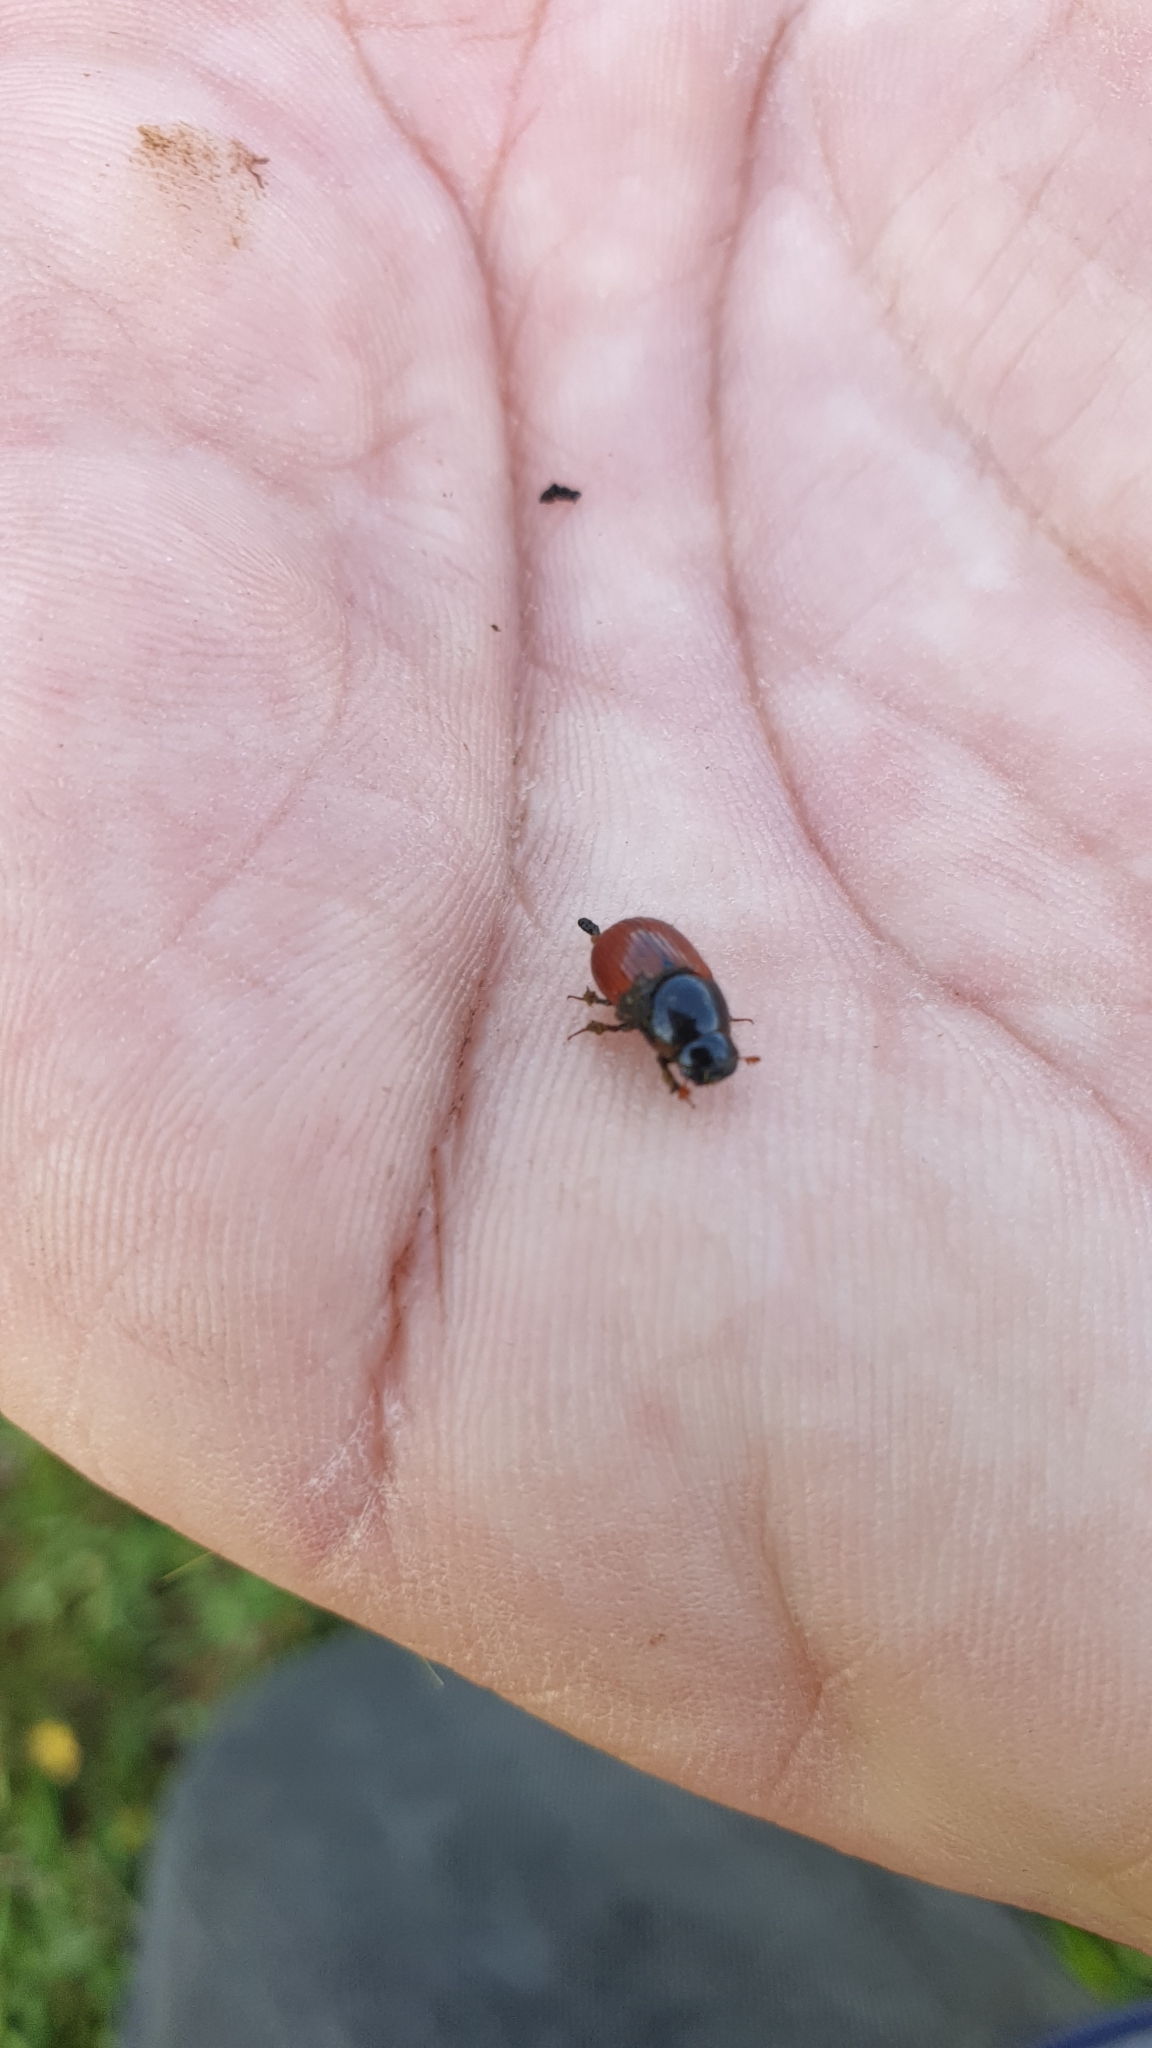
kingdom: Animalia
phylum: Arthropoda
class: Insecta
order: Coleoptera
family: Scarabaeidae
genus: Aphodius
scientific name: Aphodius fimetarius
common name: Common dung beetle
